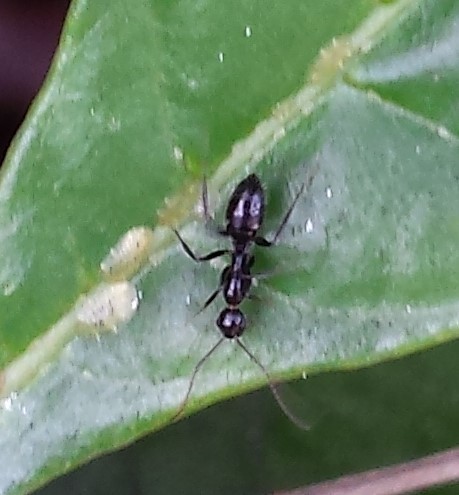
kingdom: Animalia
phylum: Arthropoda
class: Insecta
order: Hymenoptera
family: Formicidae
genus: Camponotus
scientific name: Camponotus sexguttatus
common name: Neotropical carpenter ant
